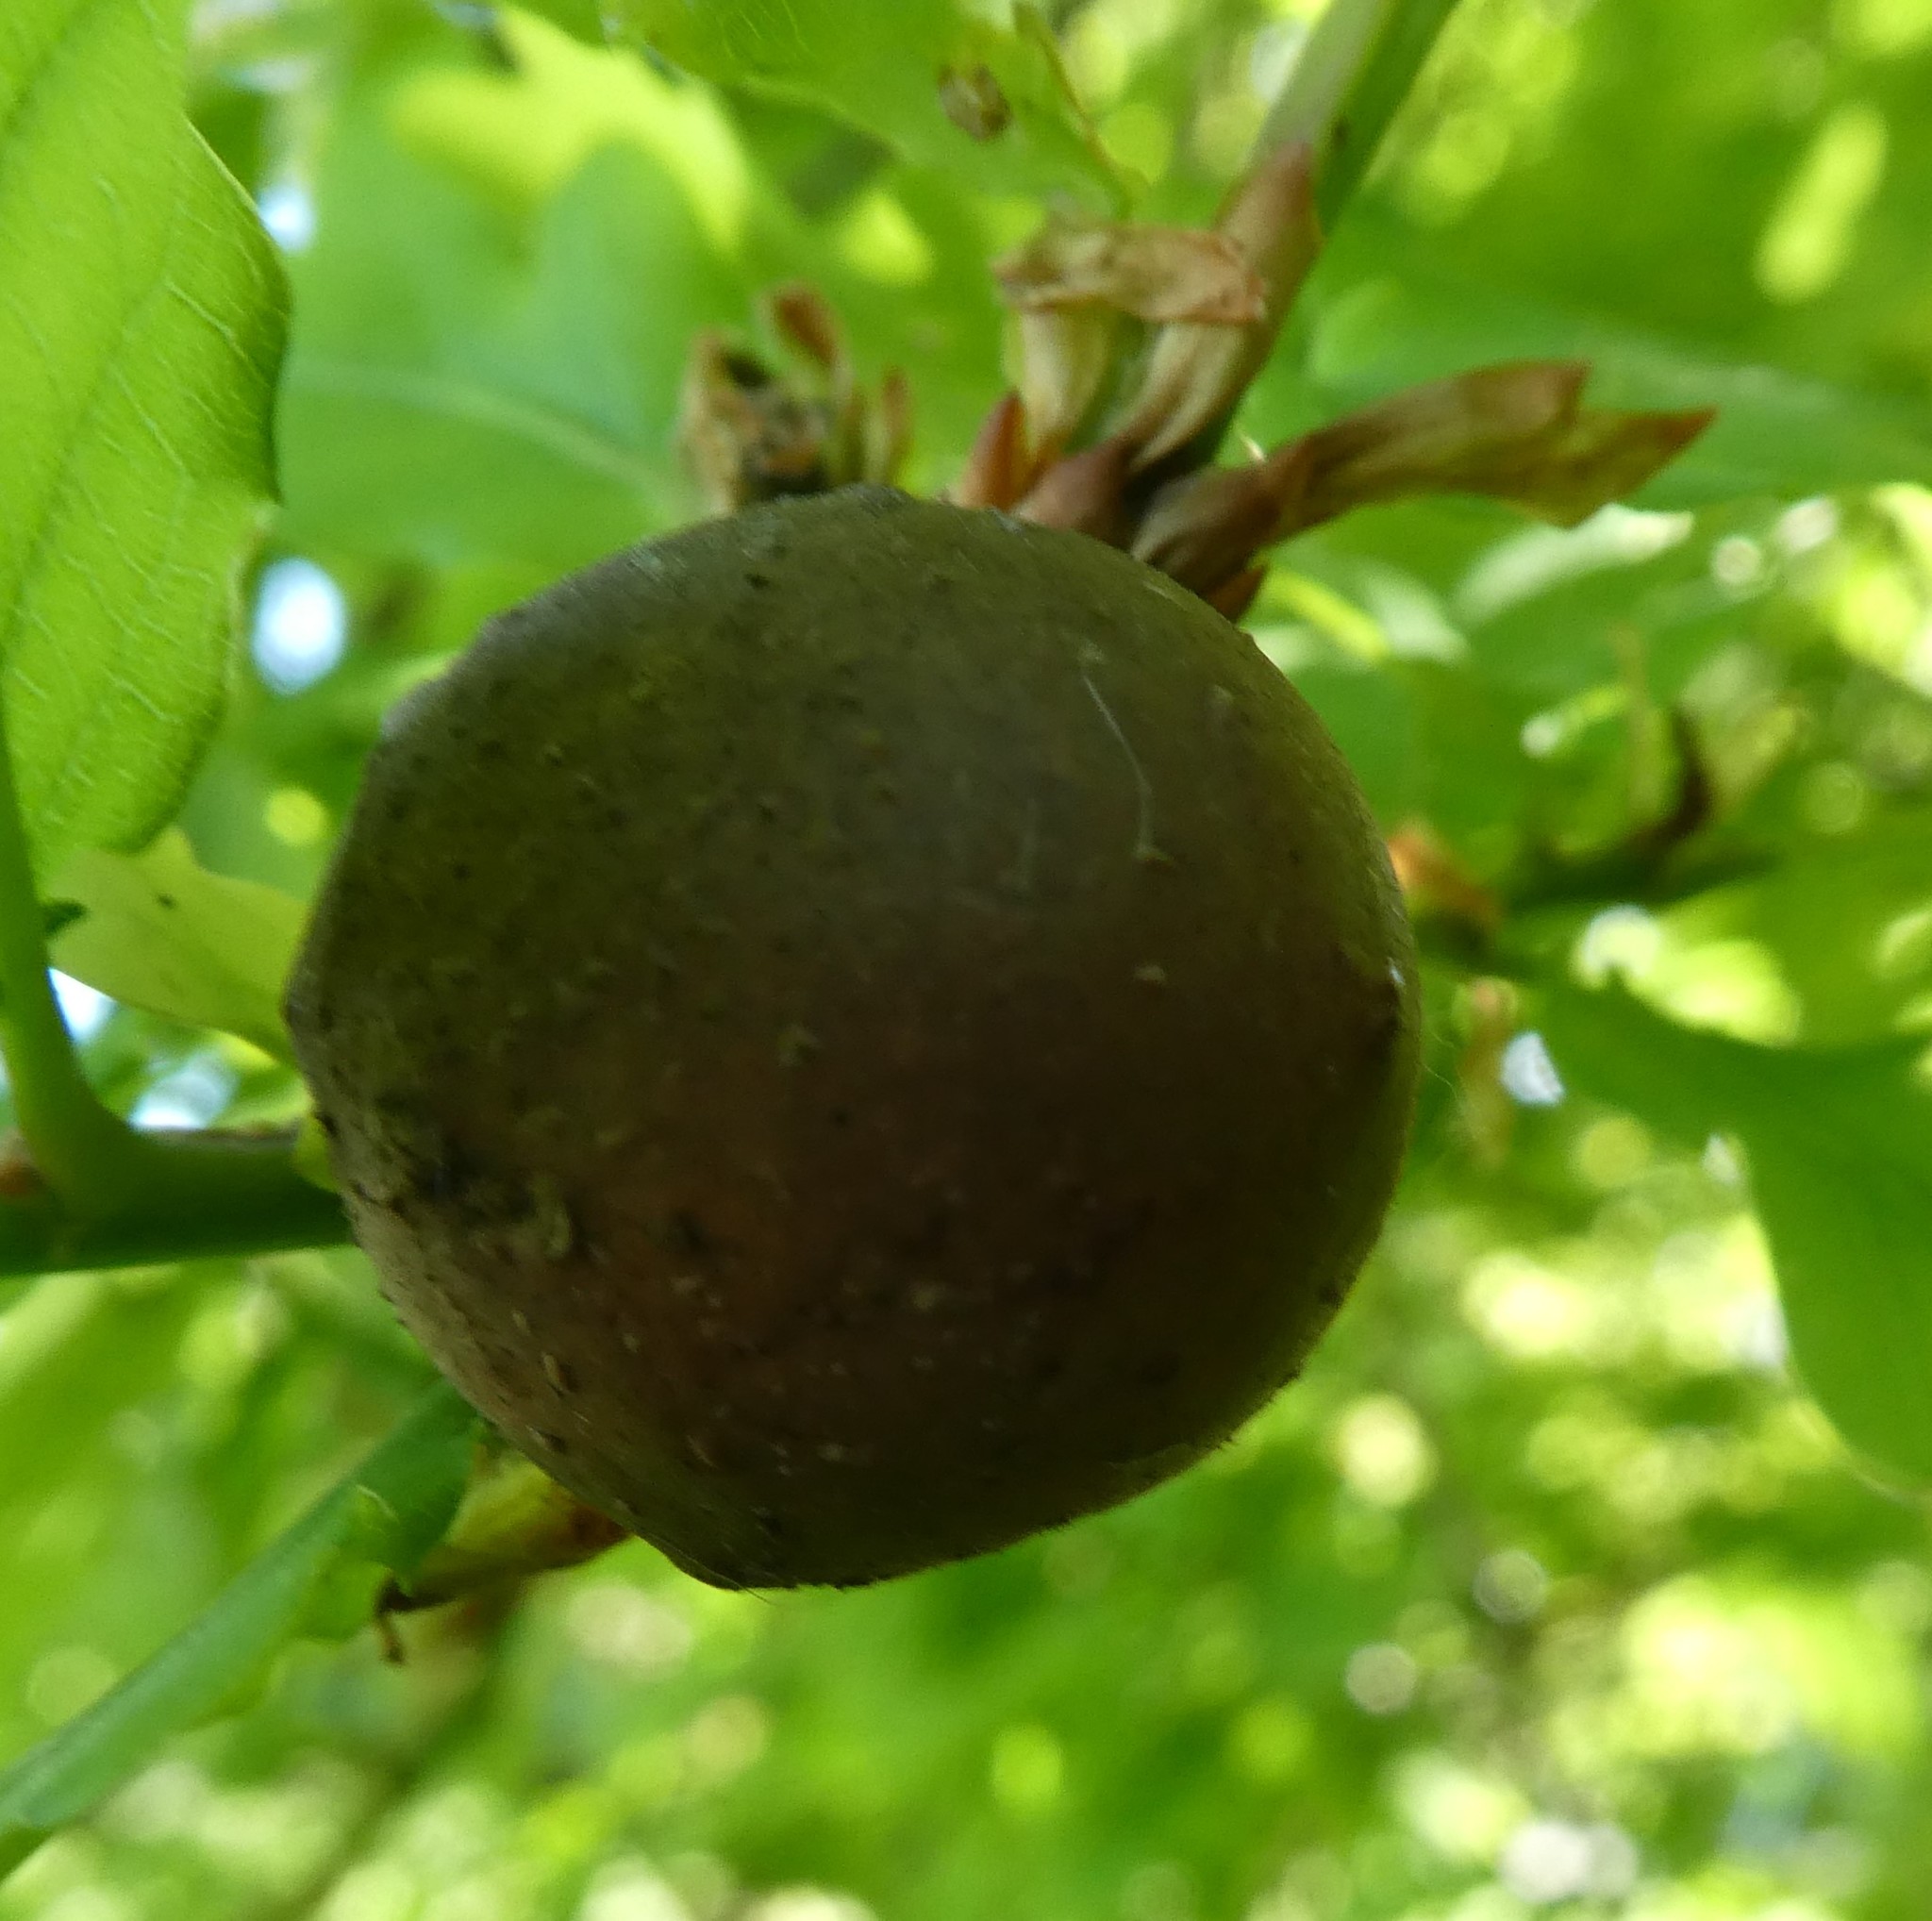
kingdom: Animalia
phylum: Arthropoda
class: Insecta
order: Hymenoptera
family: Cynipidae
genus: Andricus
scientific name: Andricus kollari
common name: Marble gall
